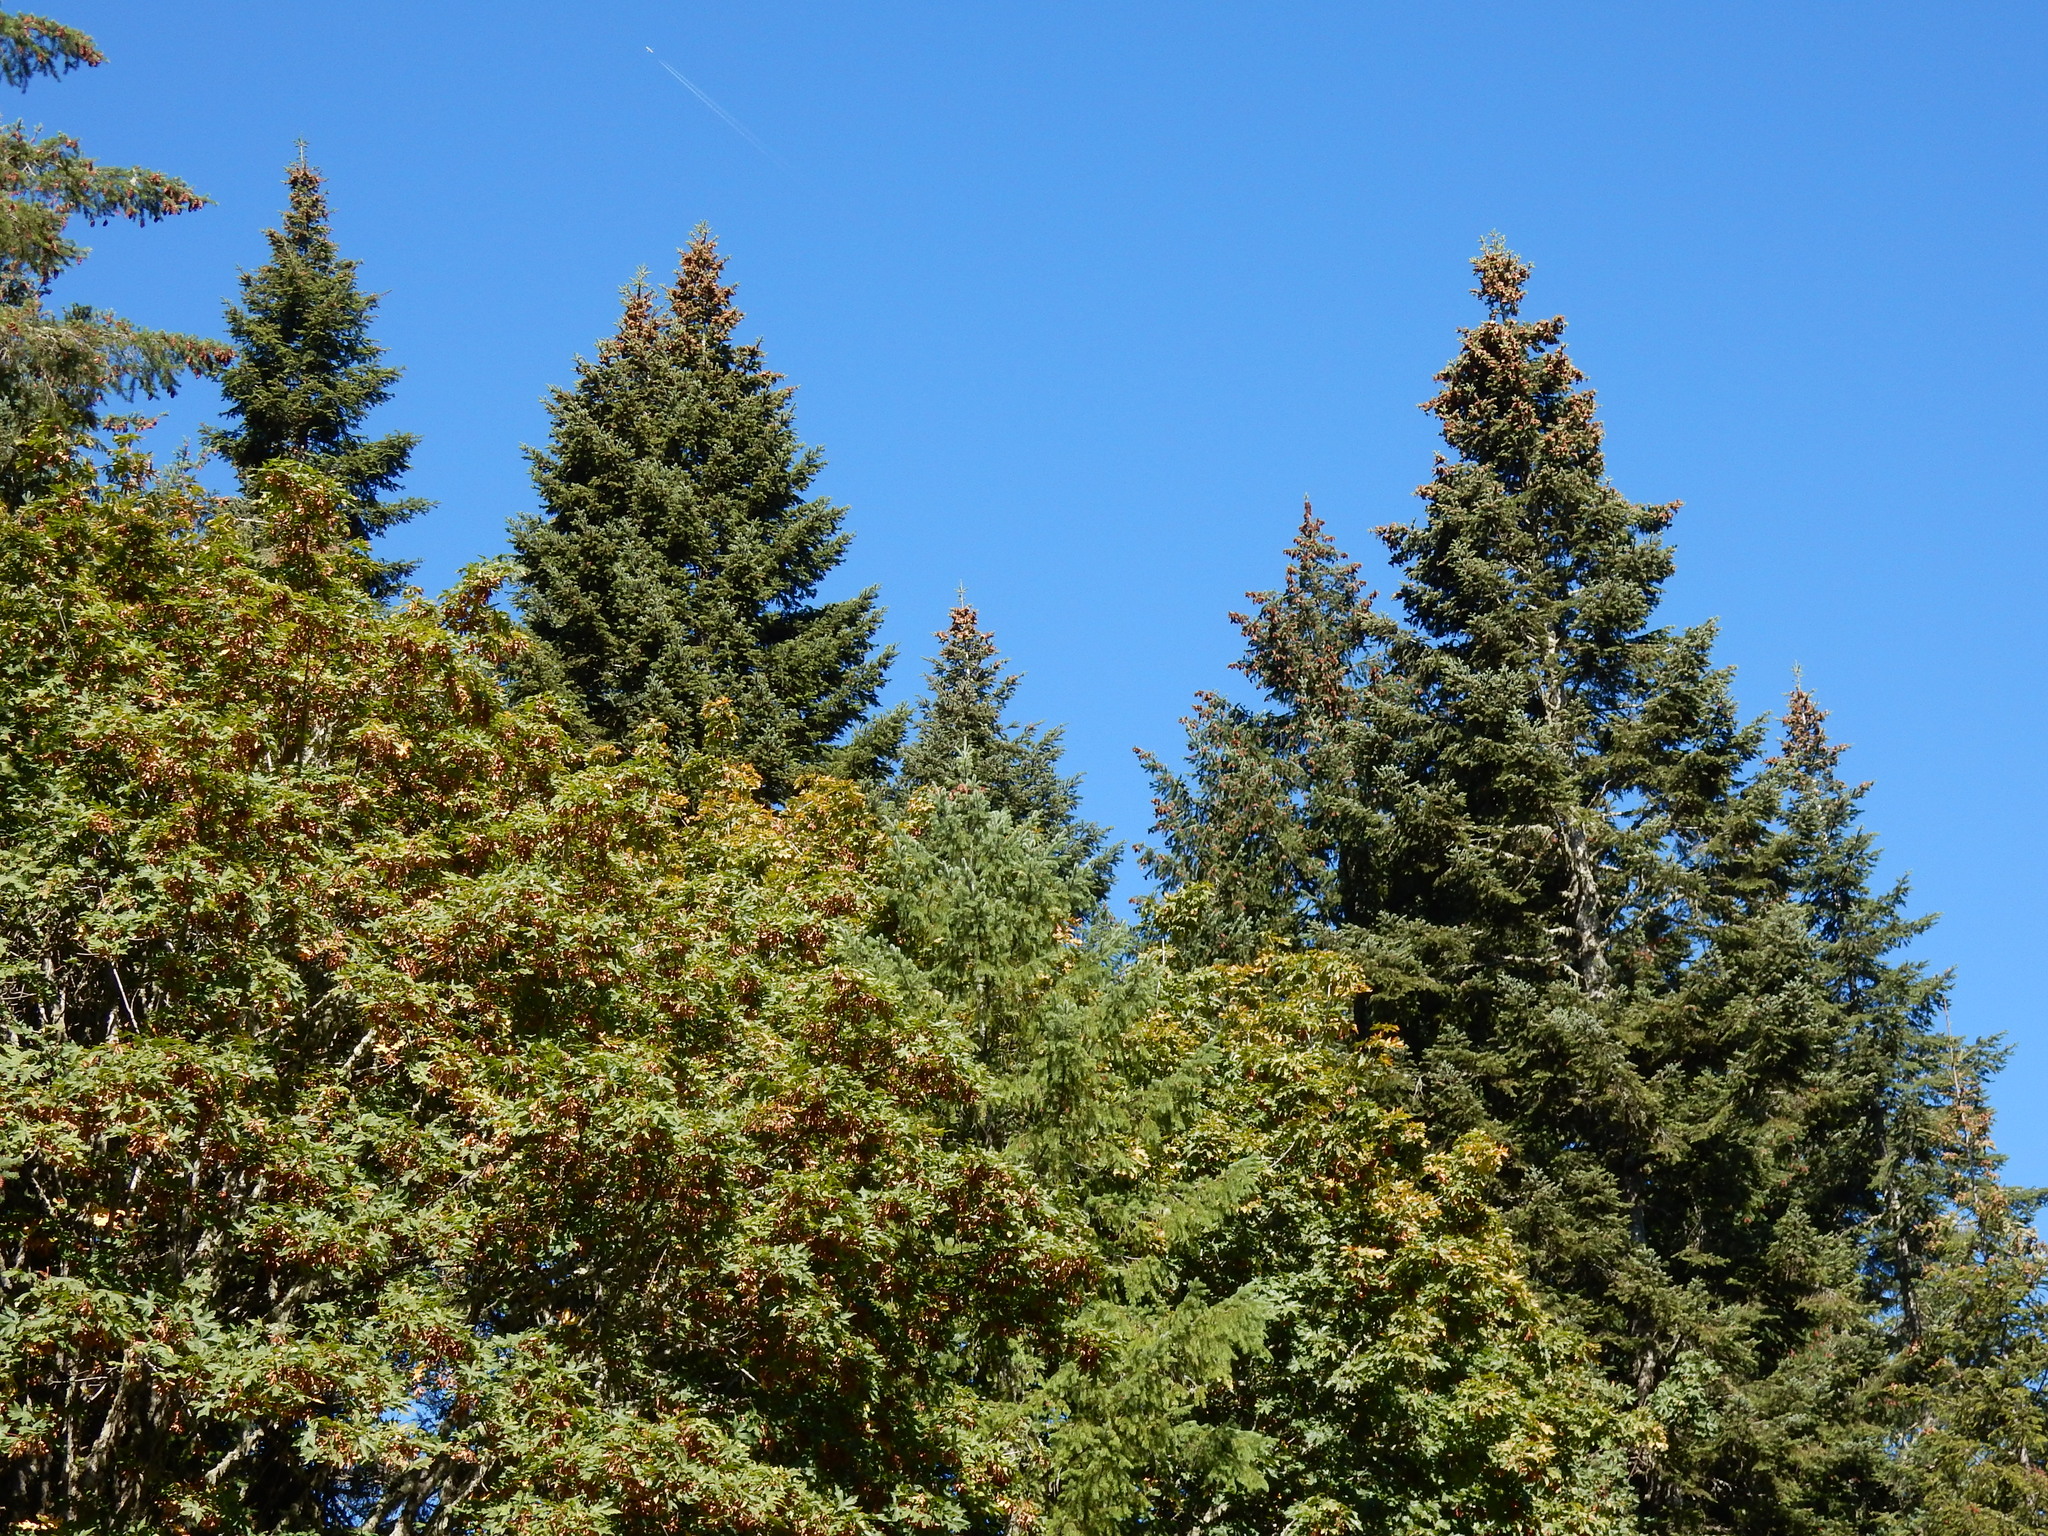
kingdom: Plantae
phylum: Tracheophyta
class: Pinopsida
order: Pinales
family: Pinaceae
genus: Abies
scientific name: Abies grandis
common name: Giant fir
